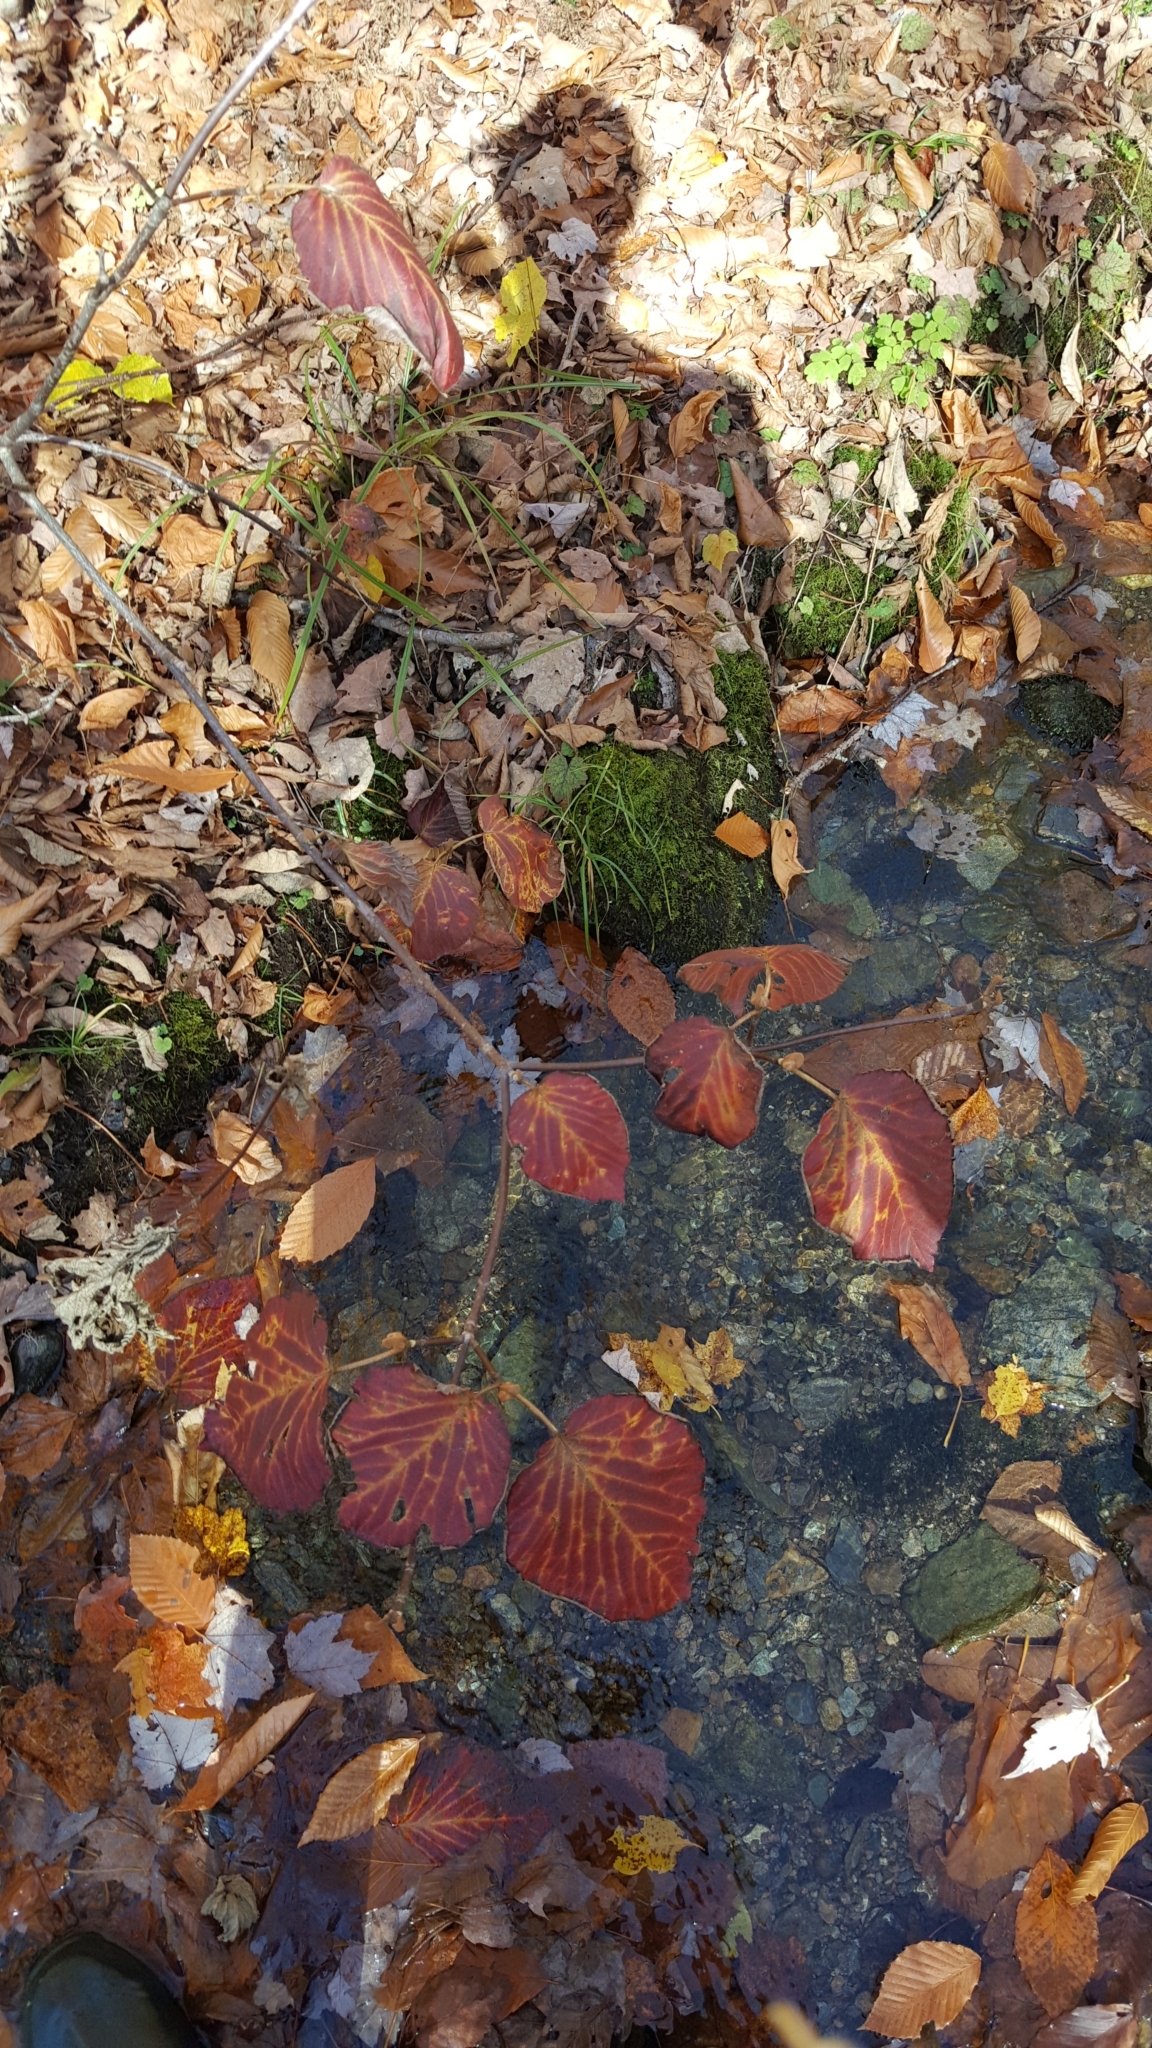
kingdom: Plantae
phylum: Tracheophyta
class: Magnoliopsida
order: Dipsacales
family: Viburnaceae
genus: Viburnum
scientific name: Viburnum lantanoides
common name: Hobblebush
